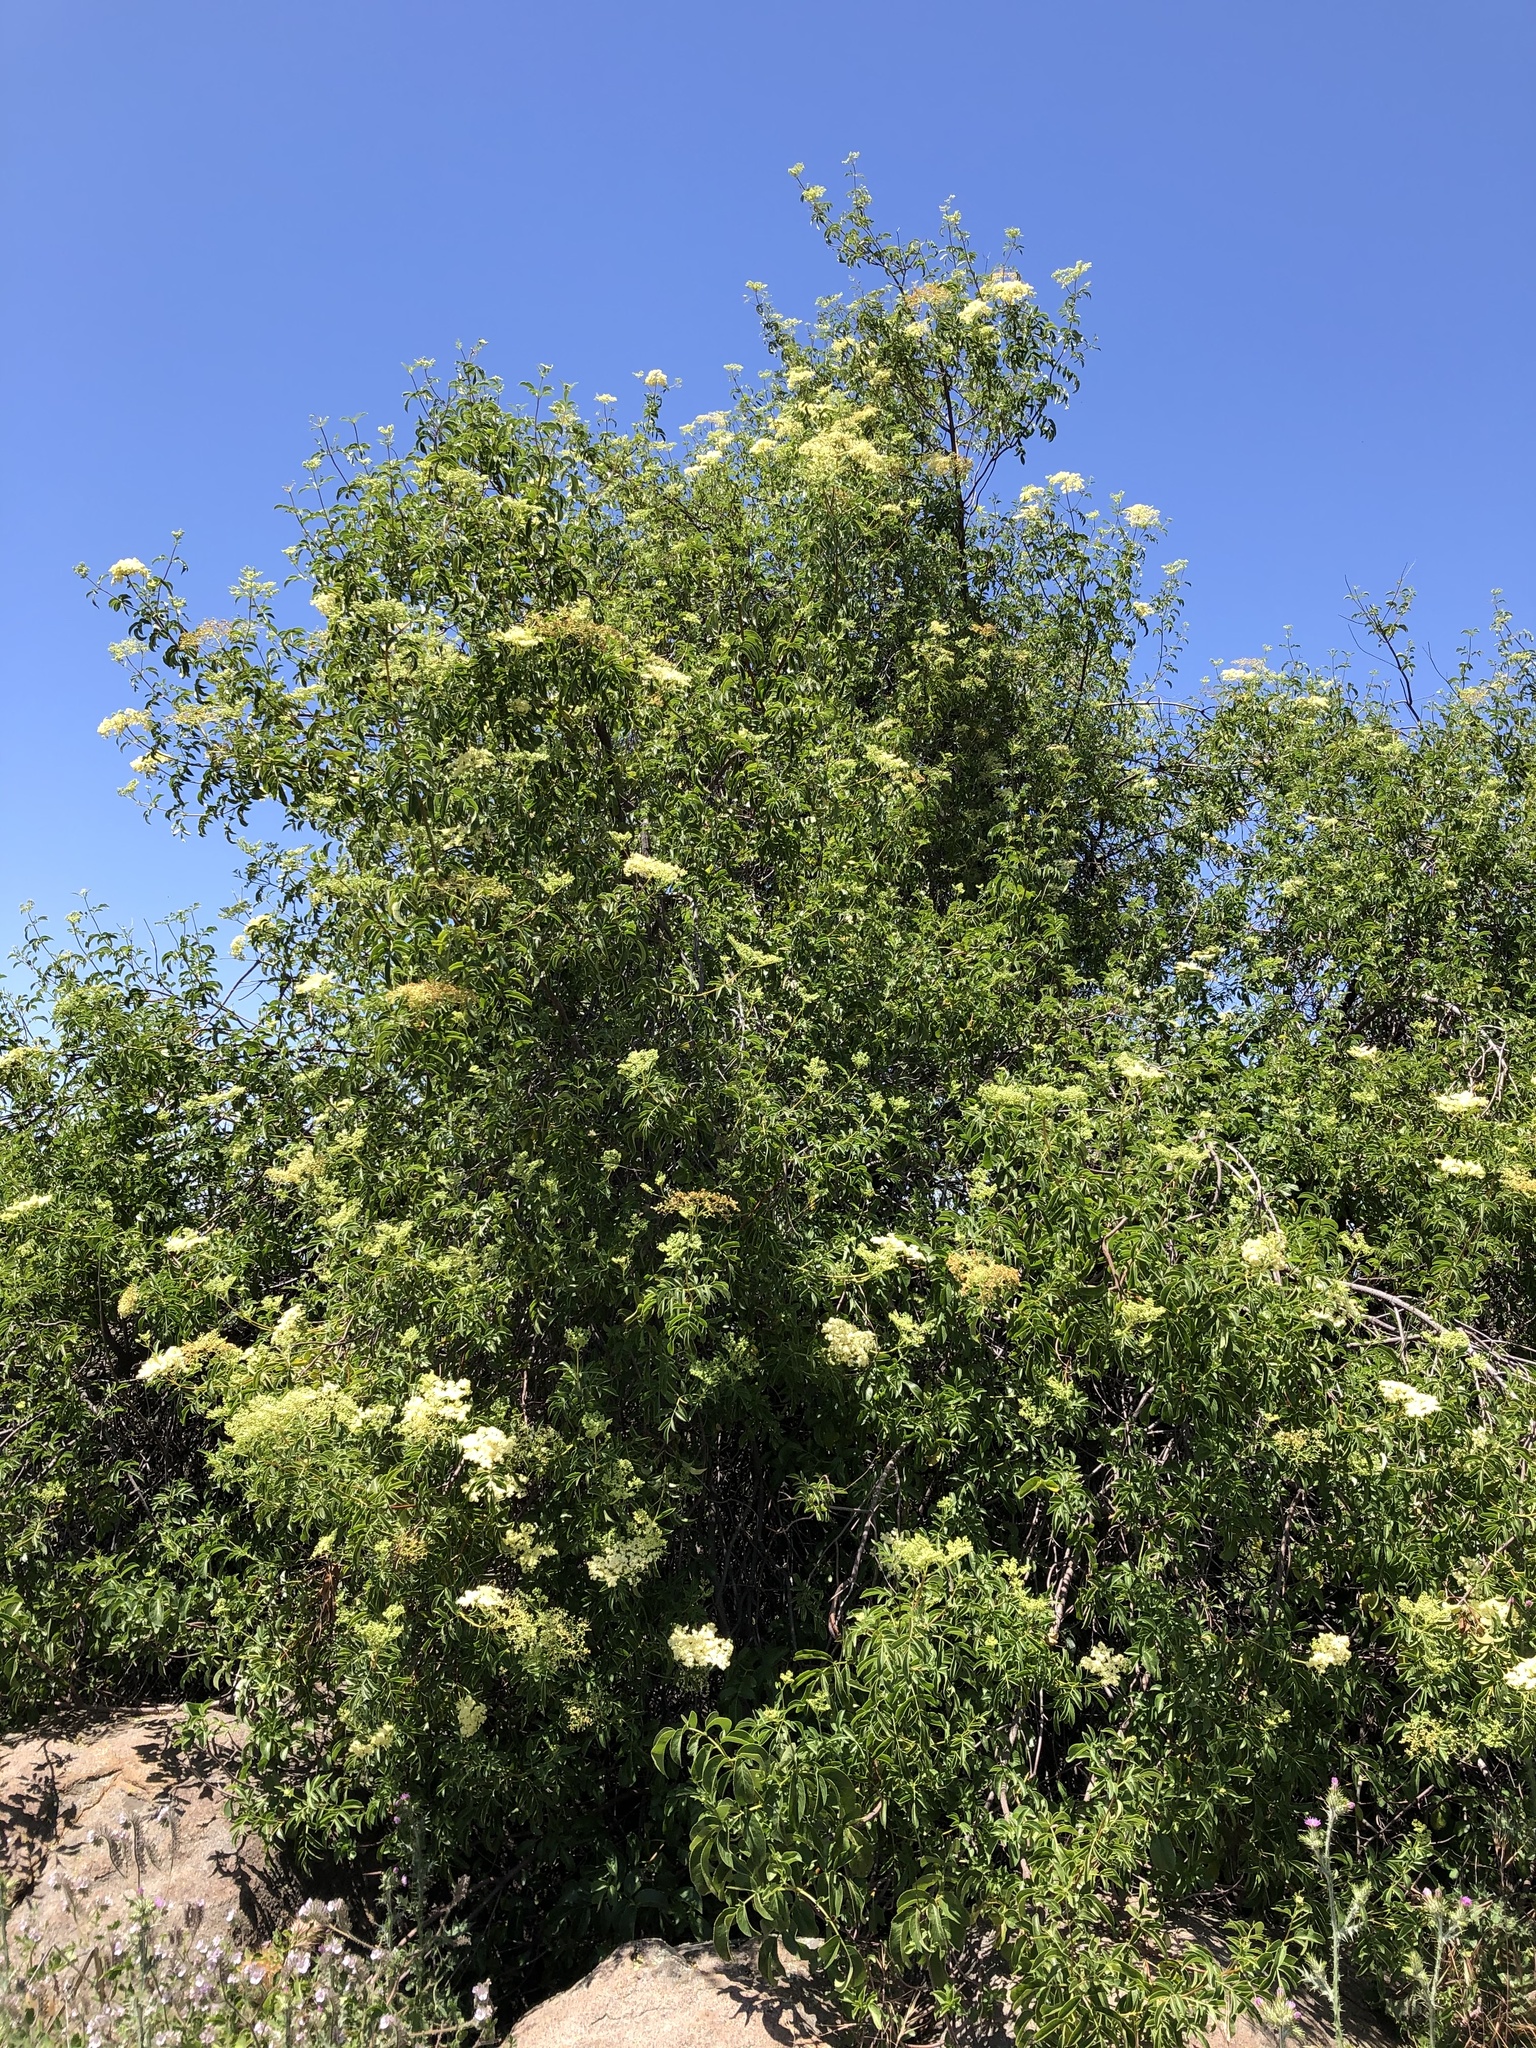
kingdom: Plantae
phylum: Tracheophyta
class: Magnoliopsida
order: Dipsacales
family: Viburnaceae
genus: Sambucus
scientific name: Sambucus cerulea
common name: Blue elder
